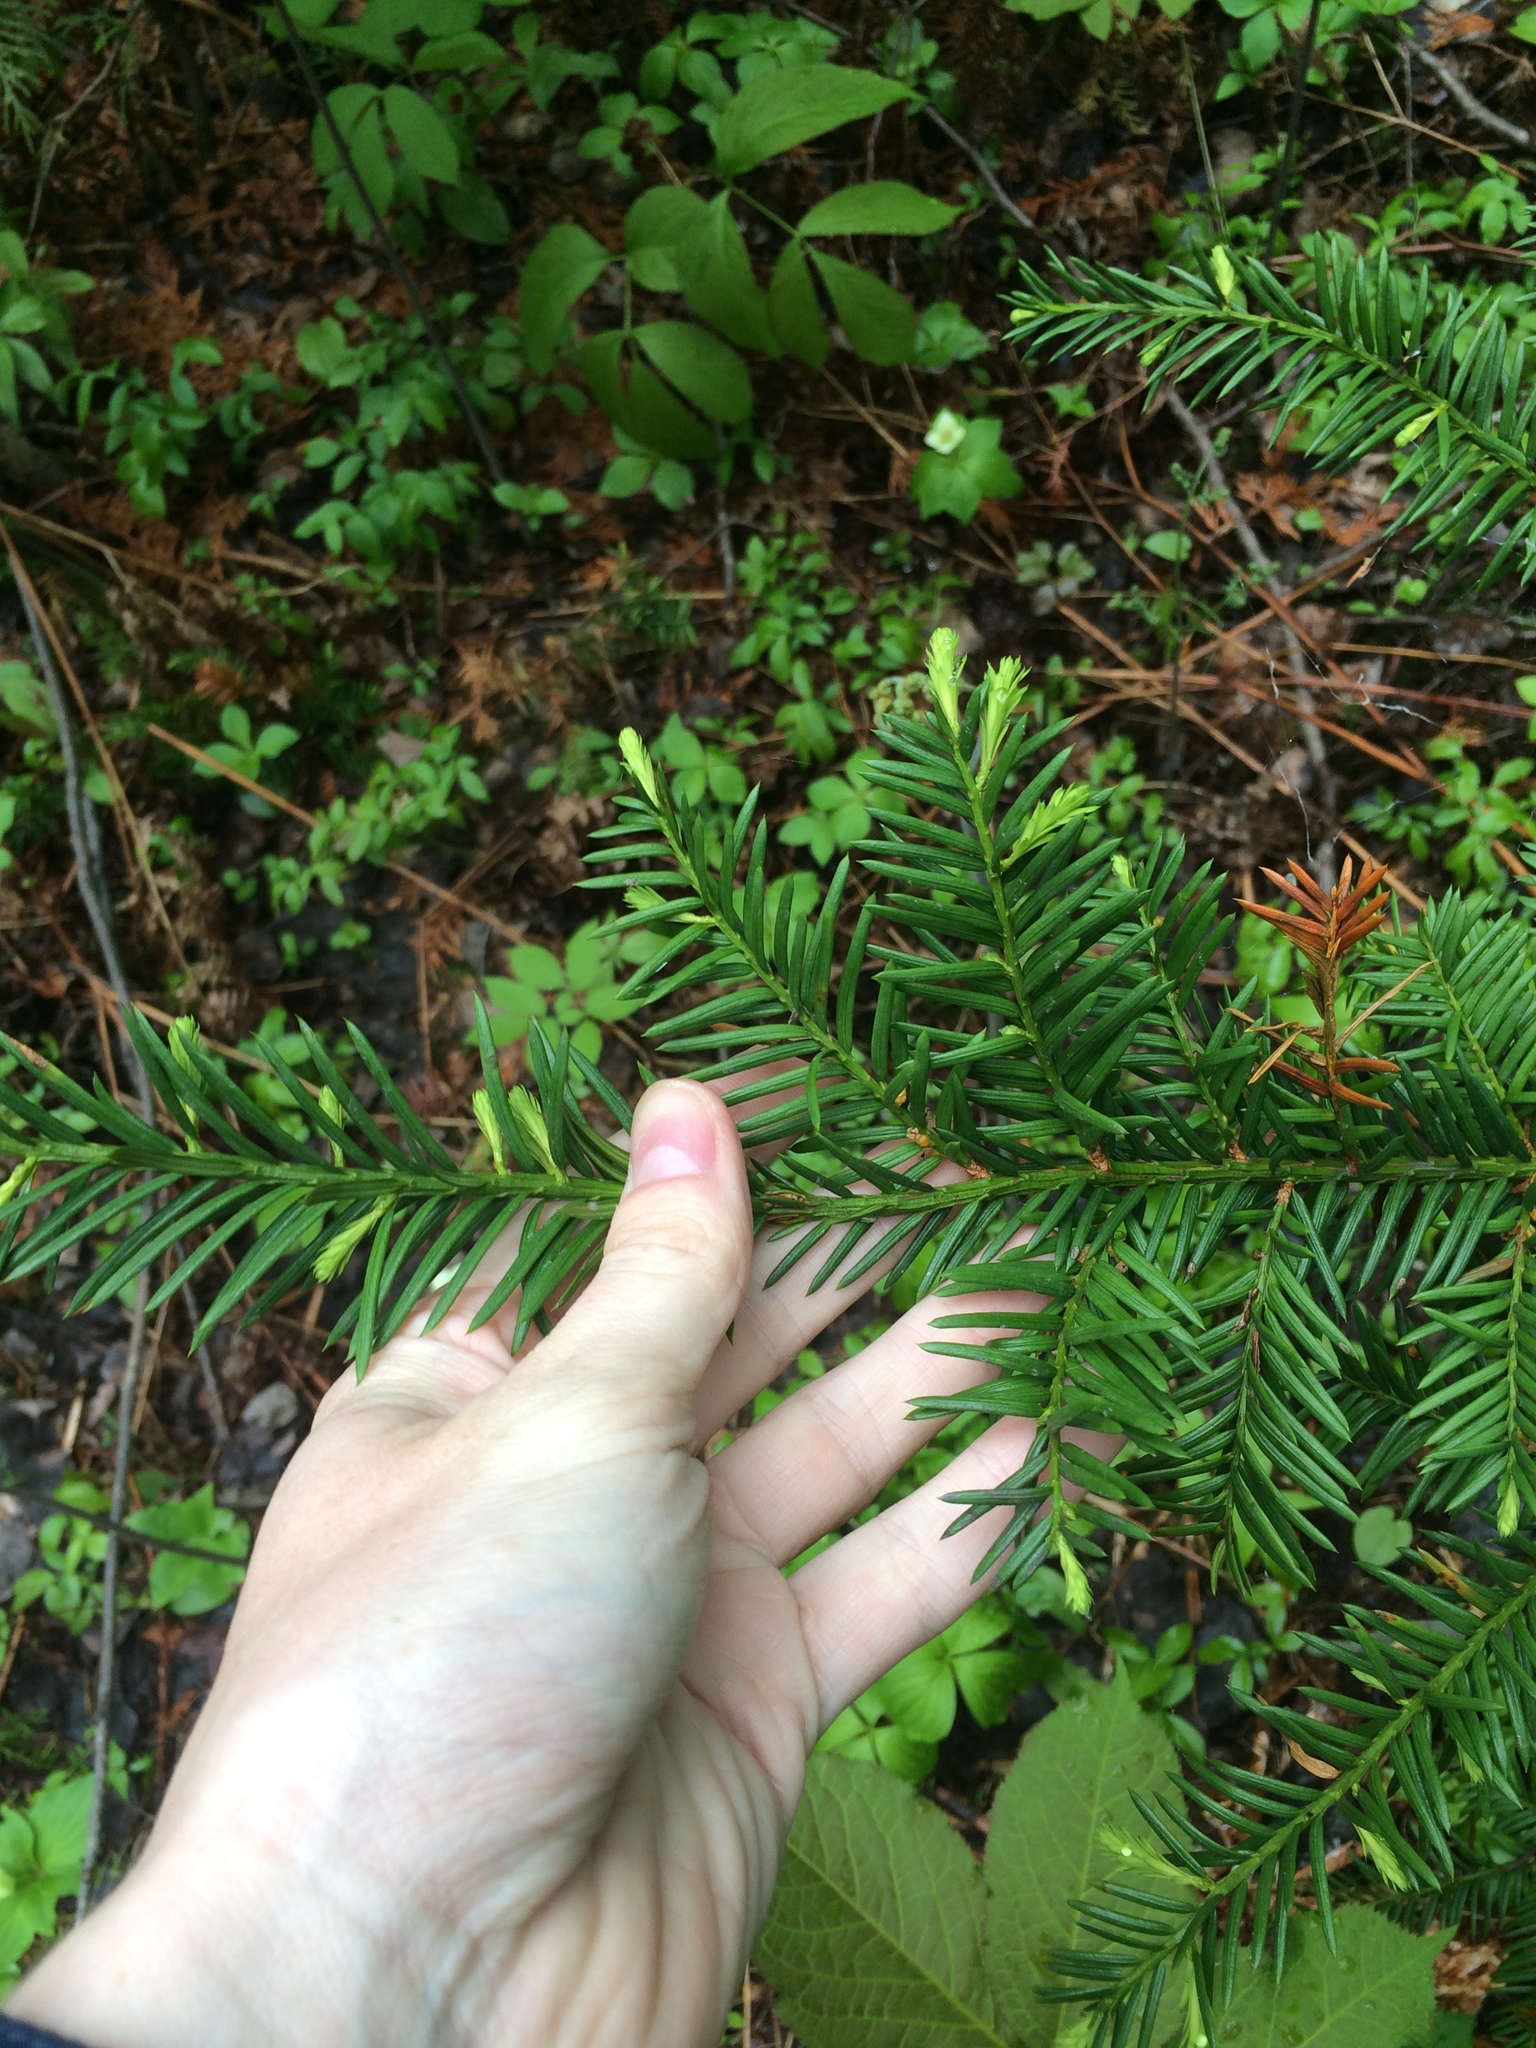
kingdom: Plantae
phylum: Tracheophyta
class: Pinopsida
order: Pinales
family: Taxaceae
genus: Taxus
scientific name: Taxus canadensis
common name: American yew
